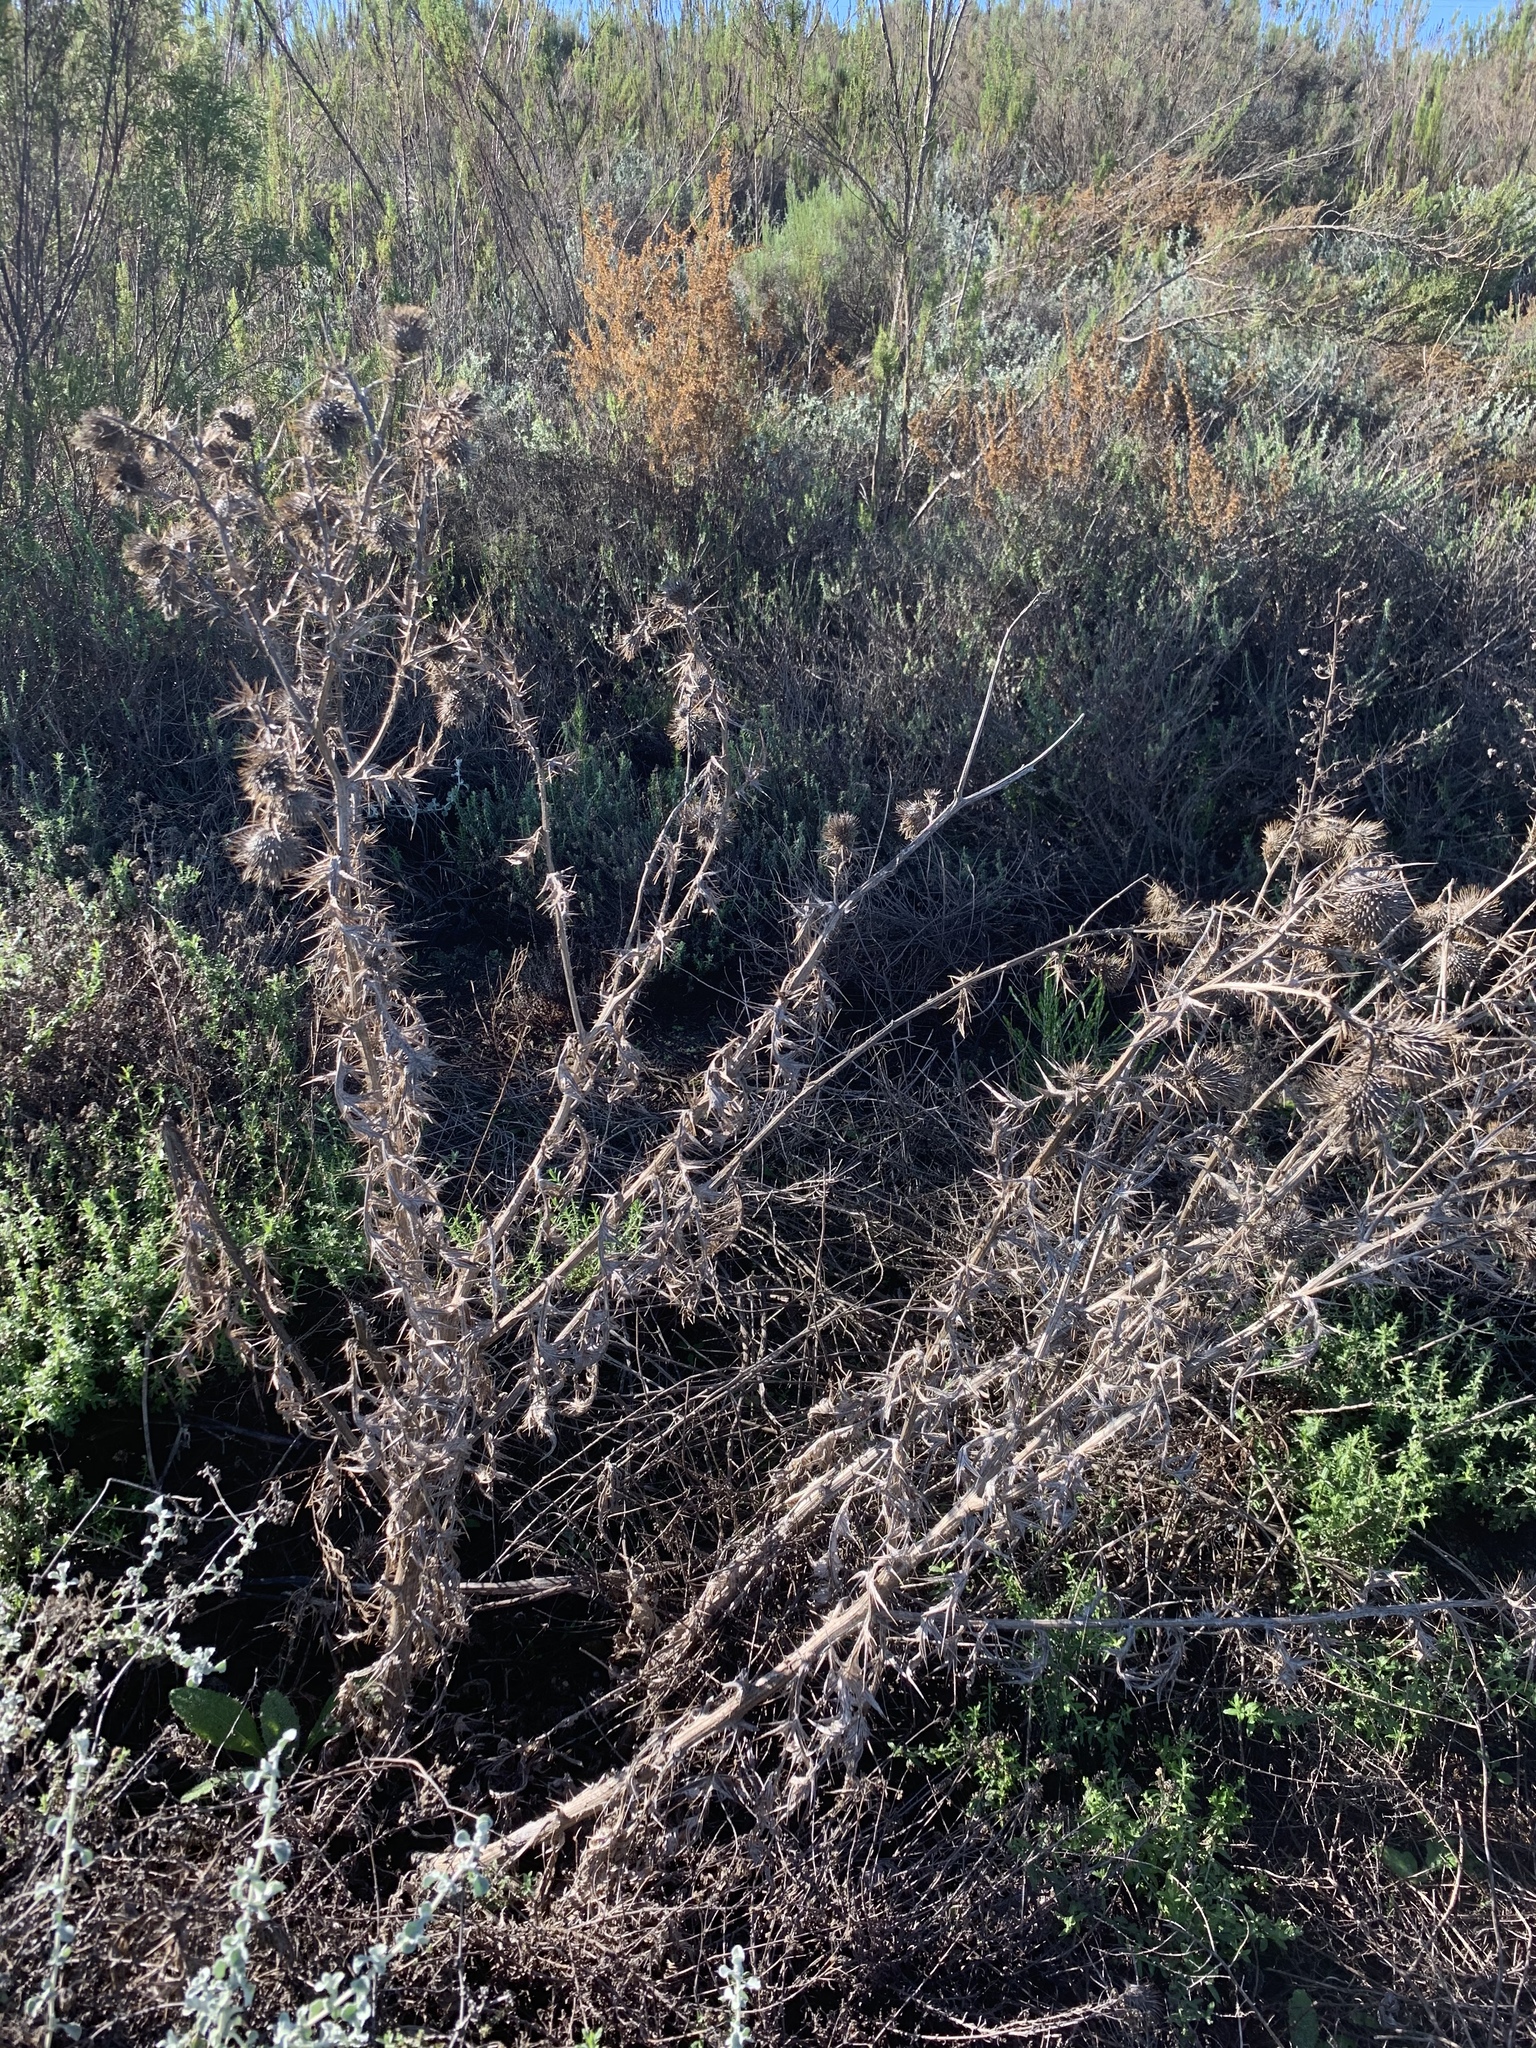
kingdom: Plantae
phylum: Tracheophyta
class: Magnoliopsida
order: Asterales
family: Asteraceae
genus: Cirsium
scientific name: Cirsium vulgare
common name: Bull thistle
